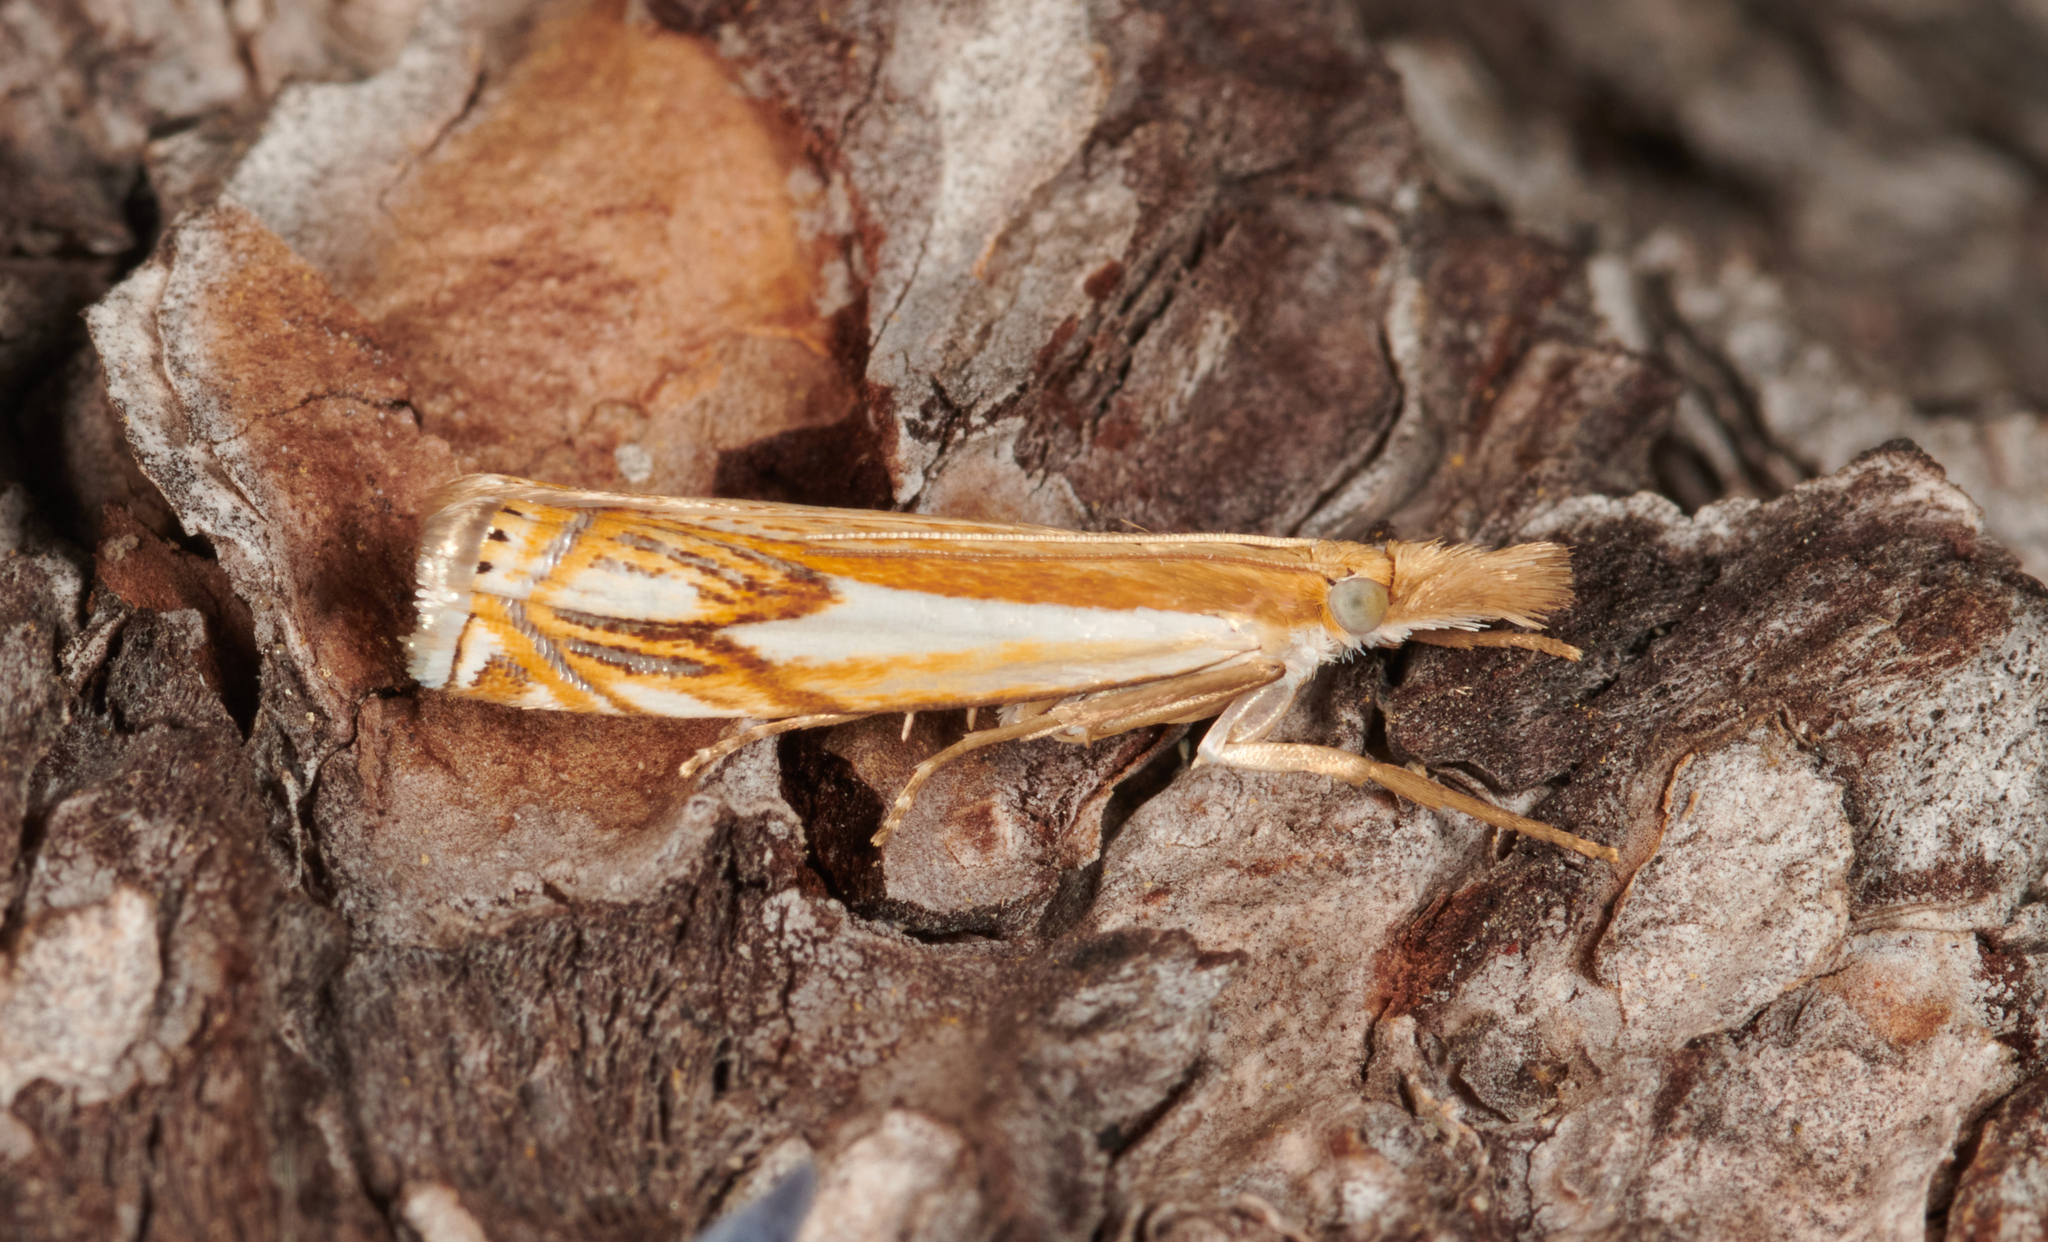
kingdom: Animalia
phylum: Arthropoda
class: Insecta
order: Lepidoptera
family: Crambidae
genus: Crambus
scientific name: Crambus agitatellus
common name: Double-banded grass-veneer
